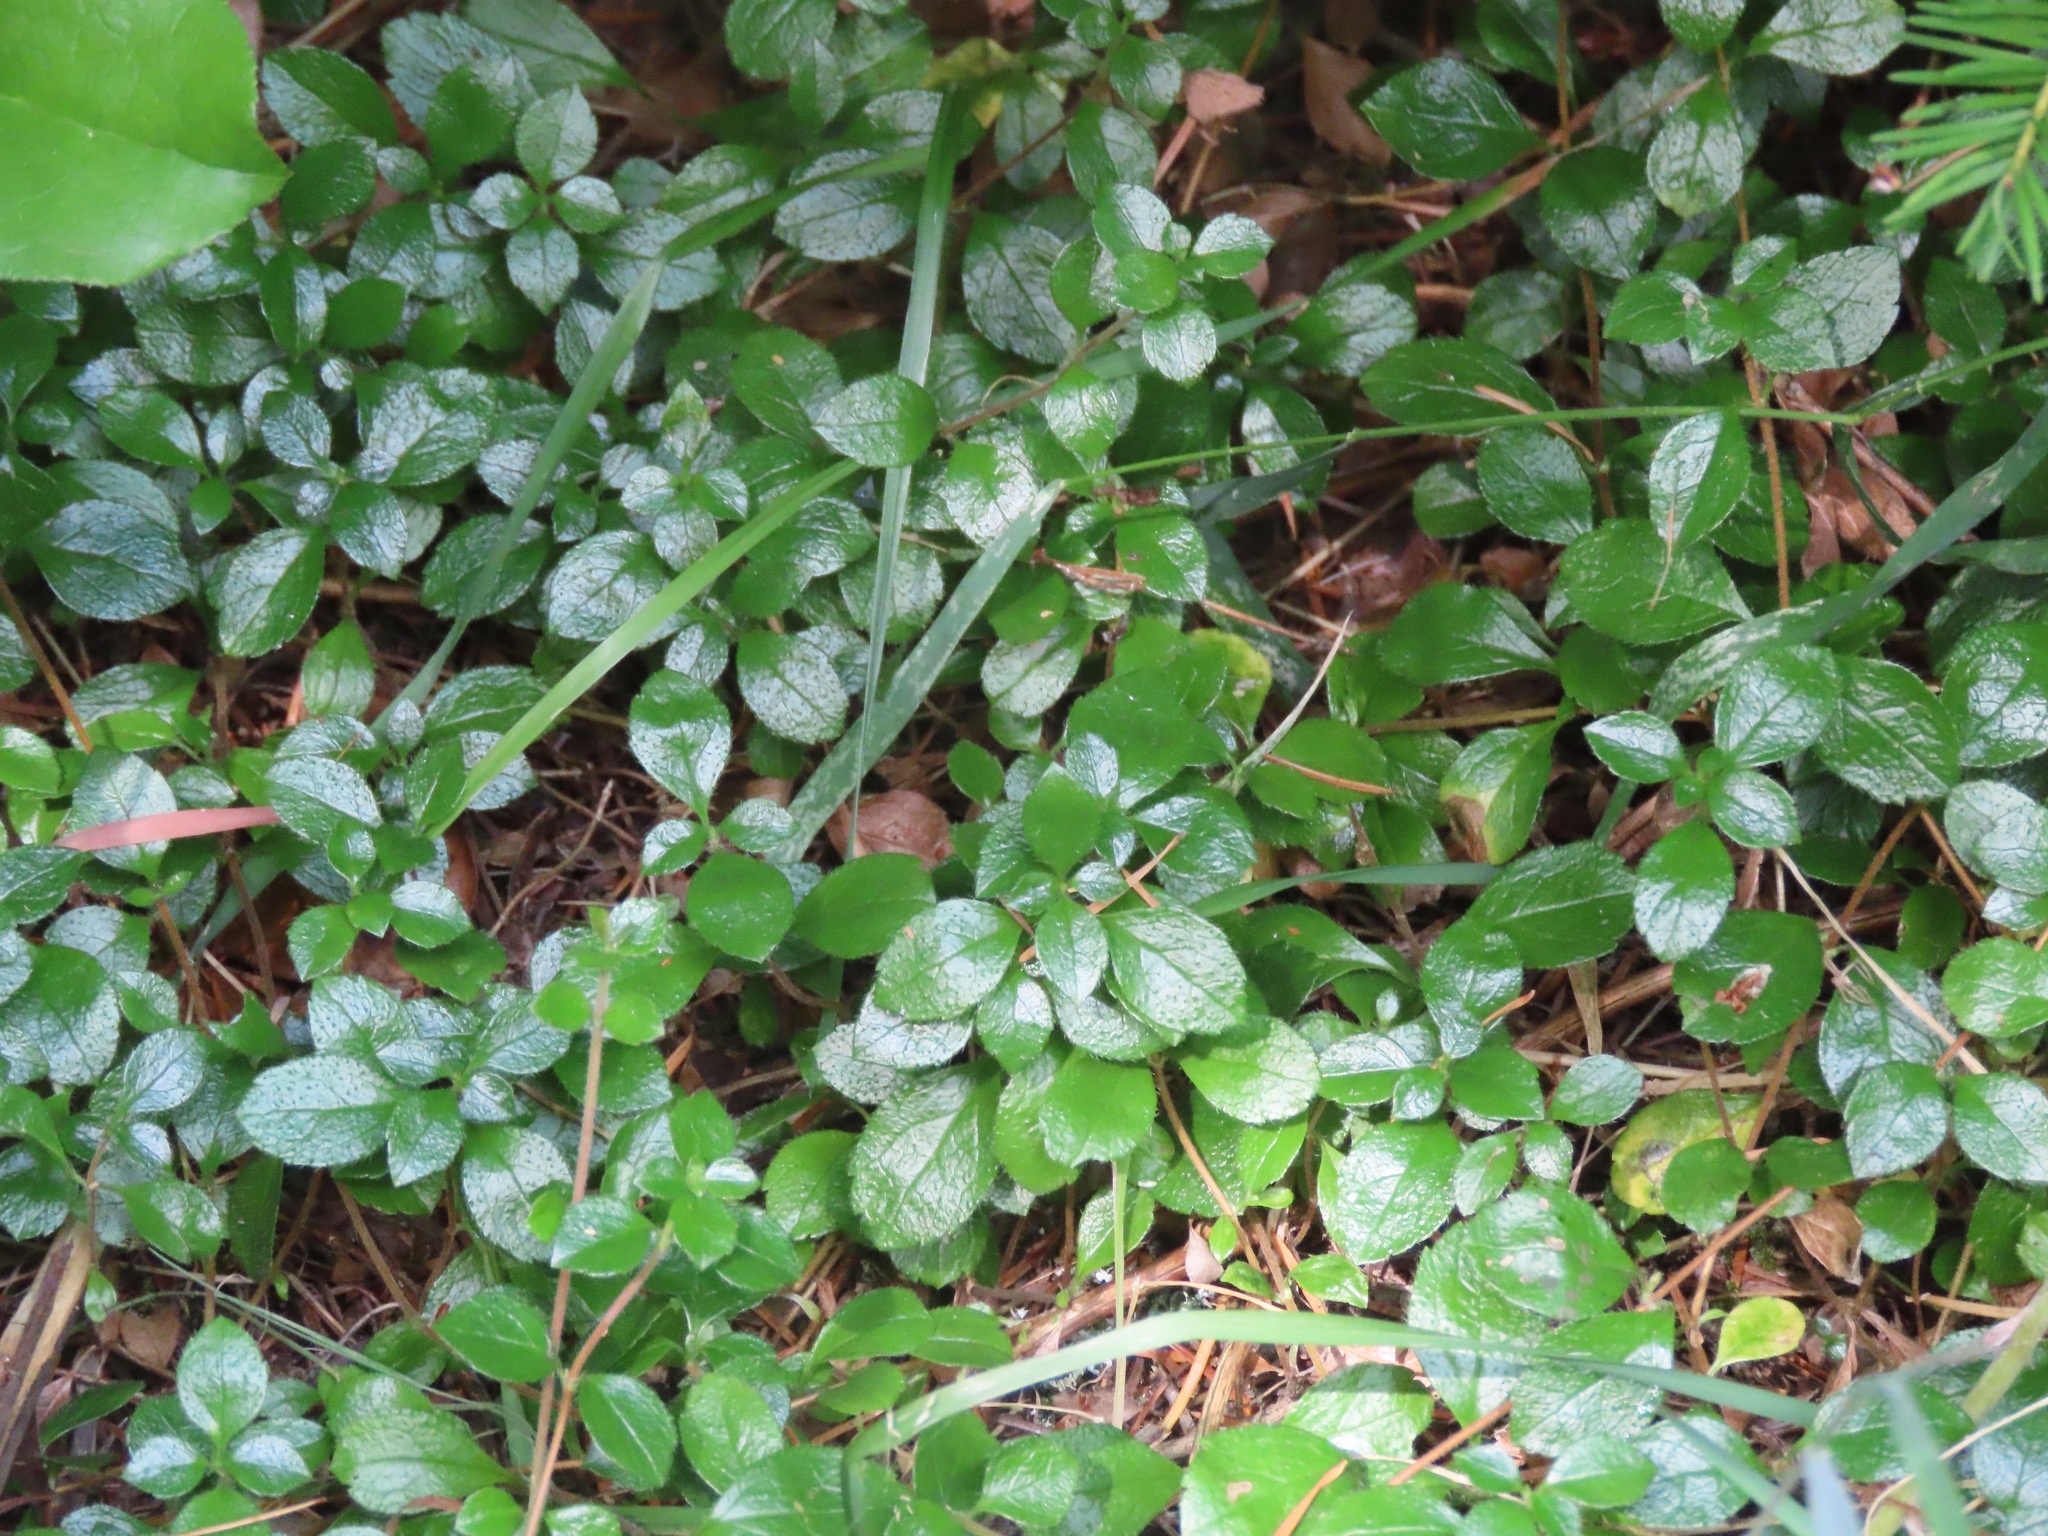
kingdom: Plantae
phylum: Tracheophyta
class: Magnoliopsida
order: Dipsacales
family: Caprifoliaceae
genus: Linnaea
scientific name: Linnaea borealis
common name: Twinflower
